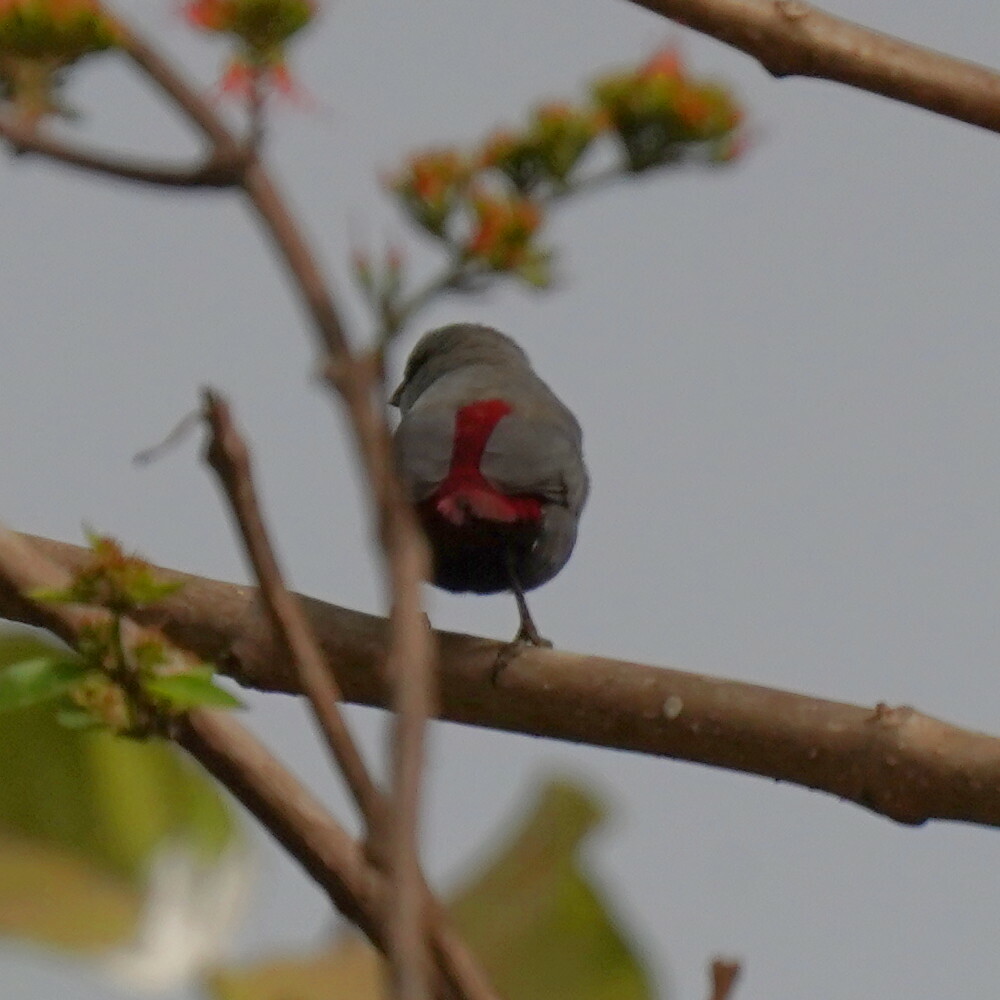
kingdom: Animalia
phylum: Chordata
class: Aves
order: Passeriformes
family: Estrildidae
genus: Estrilda
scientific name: Estrilda caerulescens
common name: Lavender waxbill
